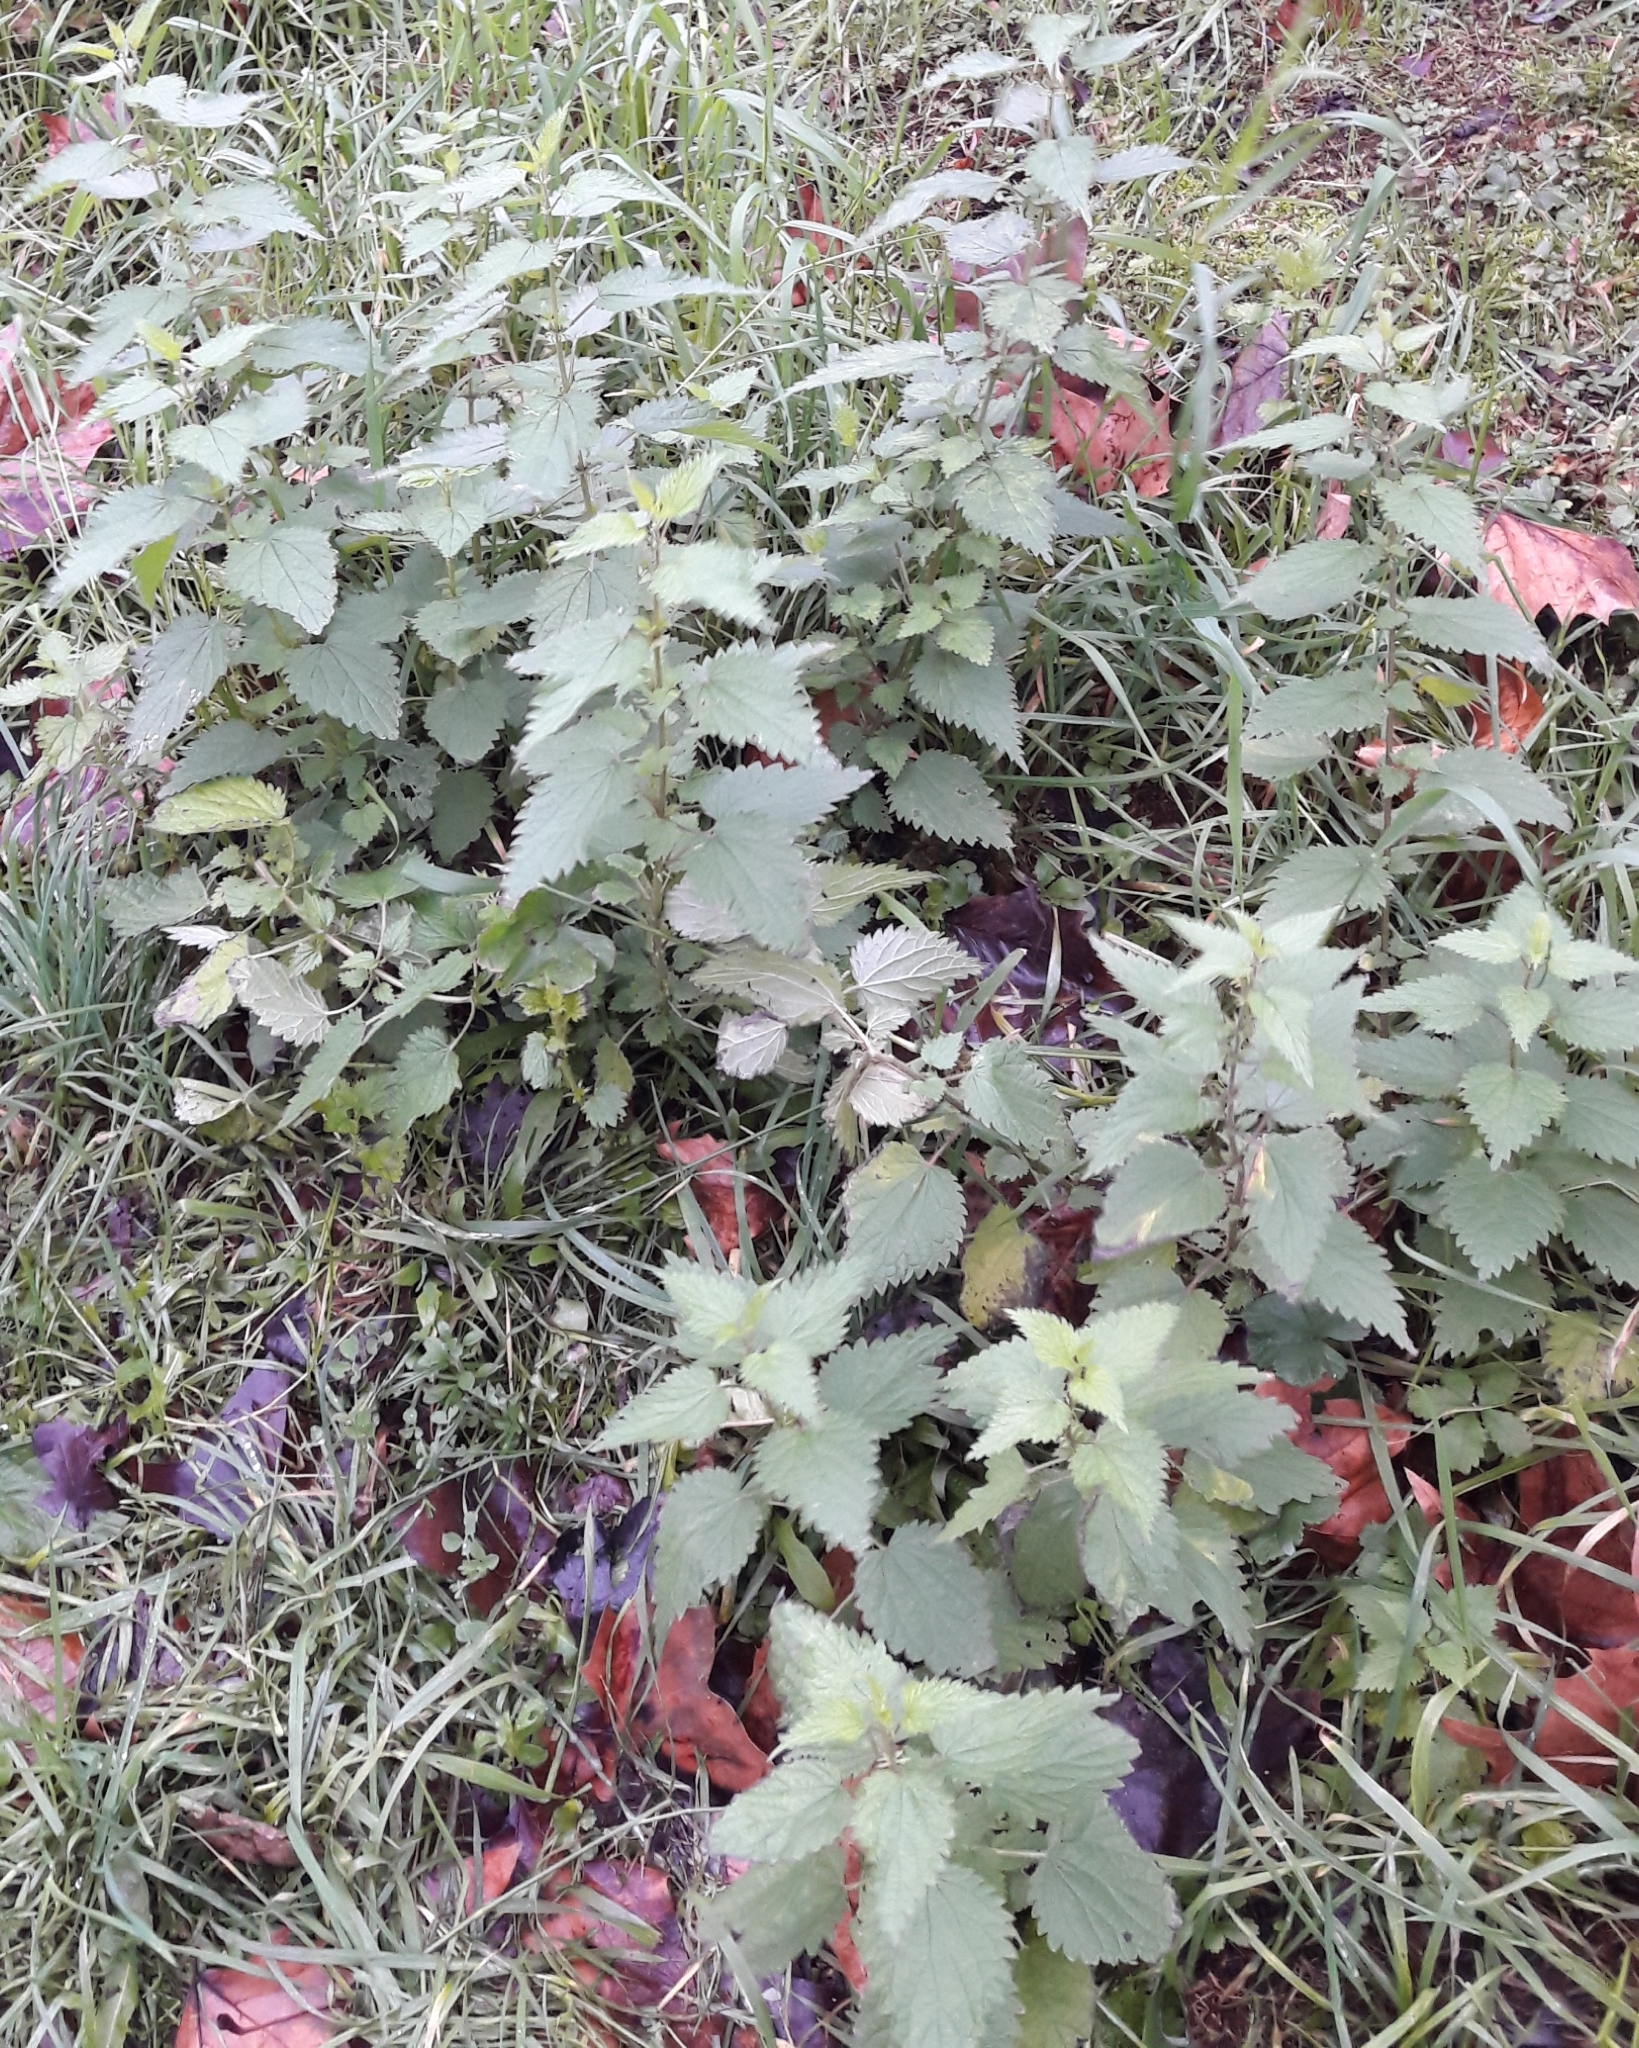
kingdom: Plantae
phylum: Tracheophyta
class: Magnoliopsida
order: Rosales
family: Urticaceae
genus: Urtica
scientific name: Urtica dioica
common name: Common nettle
